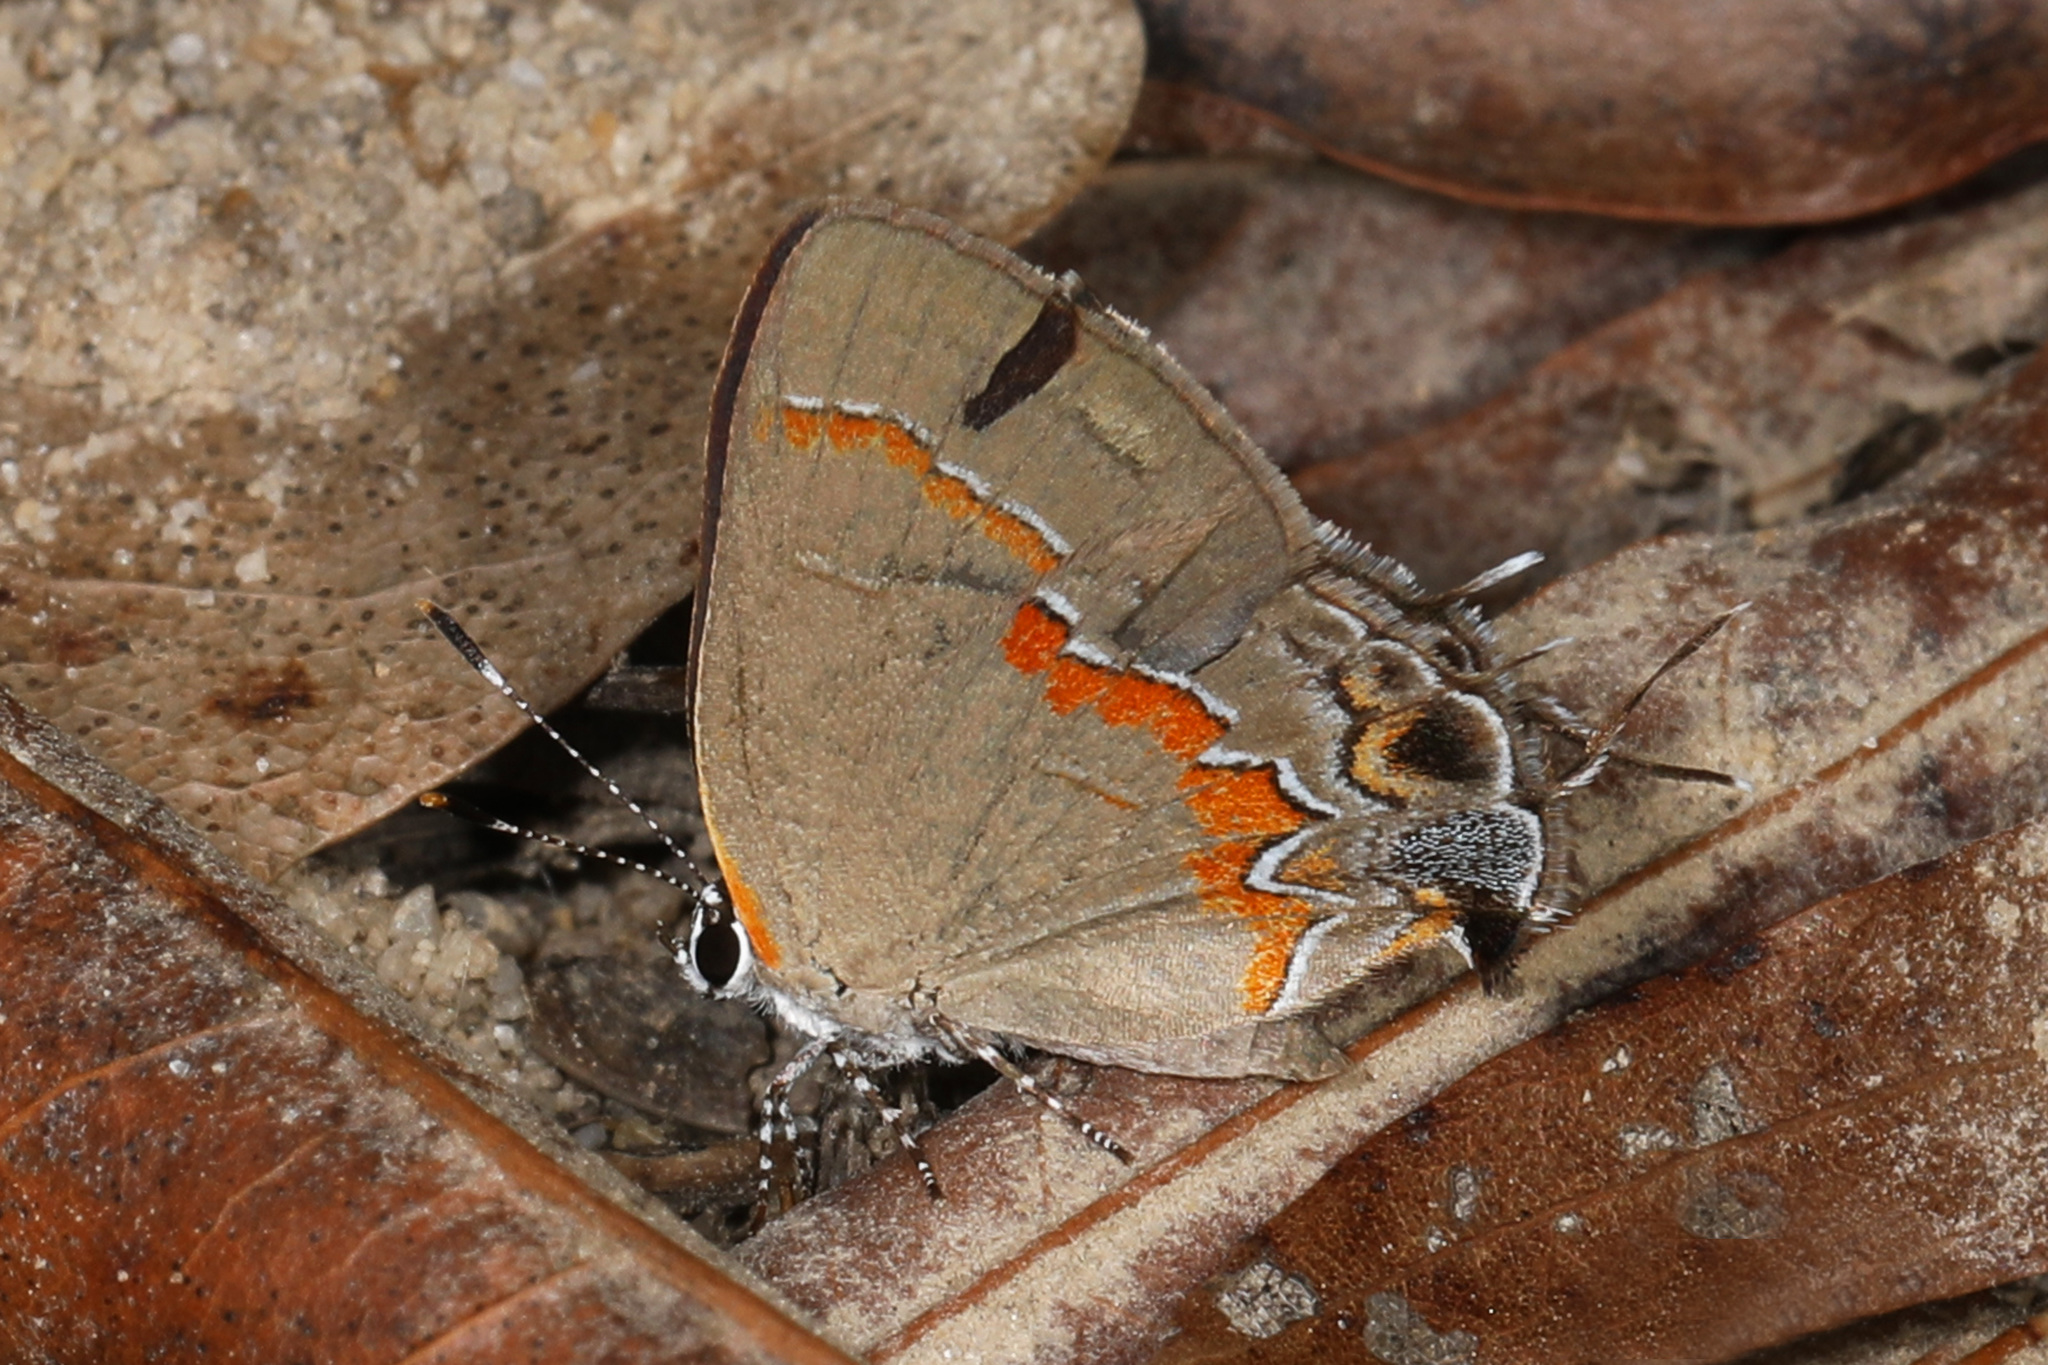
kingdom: Animalia
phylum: Arthropoda
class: Insecta
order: Lepidoptera
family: Lycaenidae
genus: Calycopis
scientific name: Calycopis cecrops
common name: Red-banded hairstreak
